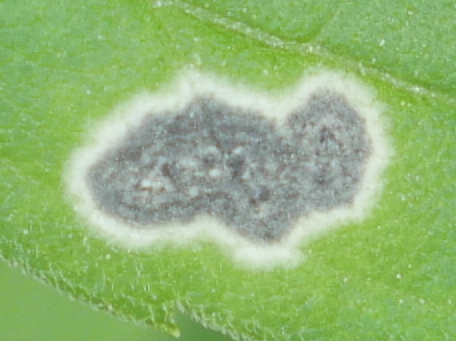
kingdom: Animalia
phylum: Arthropoda
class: Insecta
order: Diptera
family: Cecidomyiidae
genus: Asteromyia
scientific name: Asteromyia carbonifera
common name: Carbonifera goldenrod gall midge
